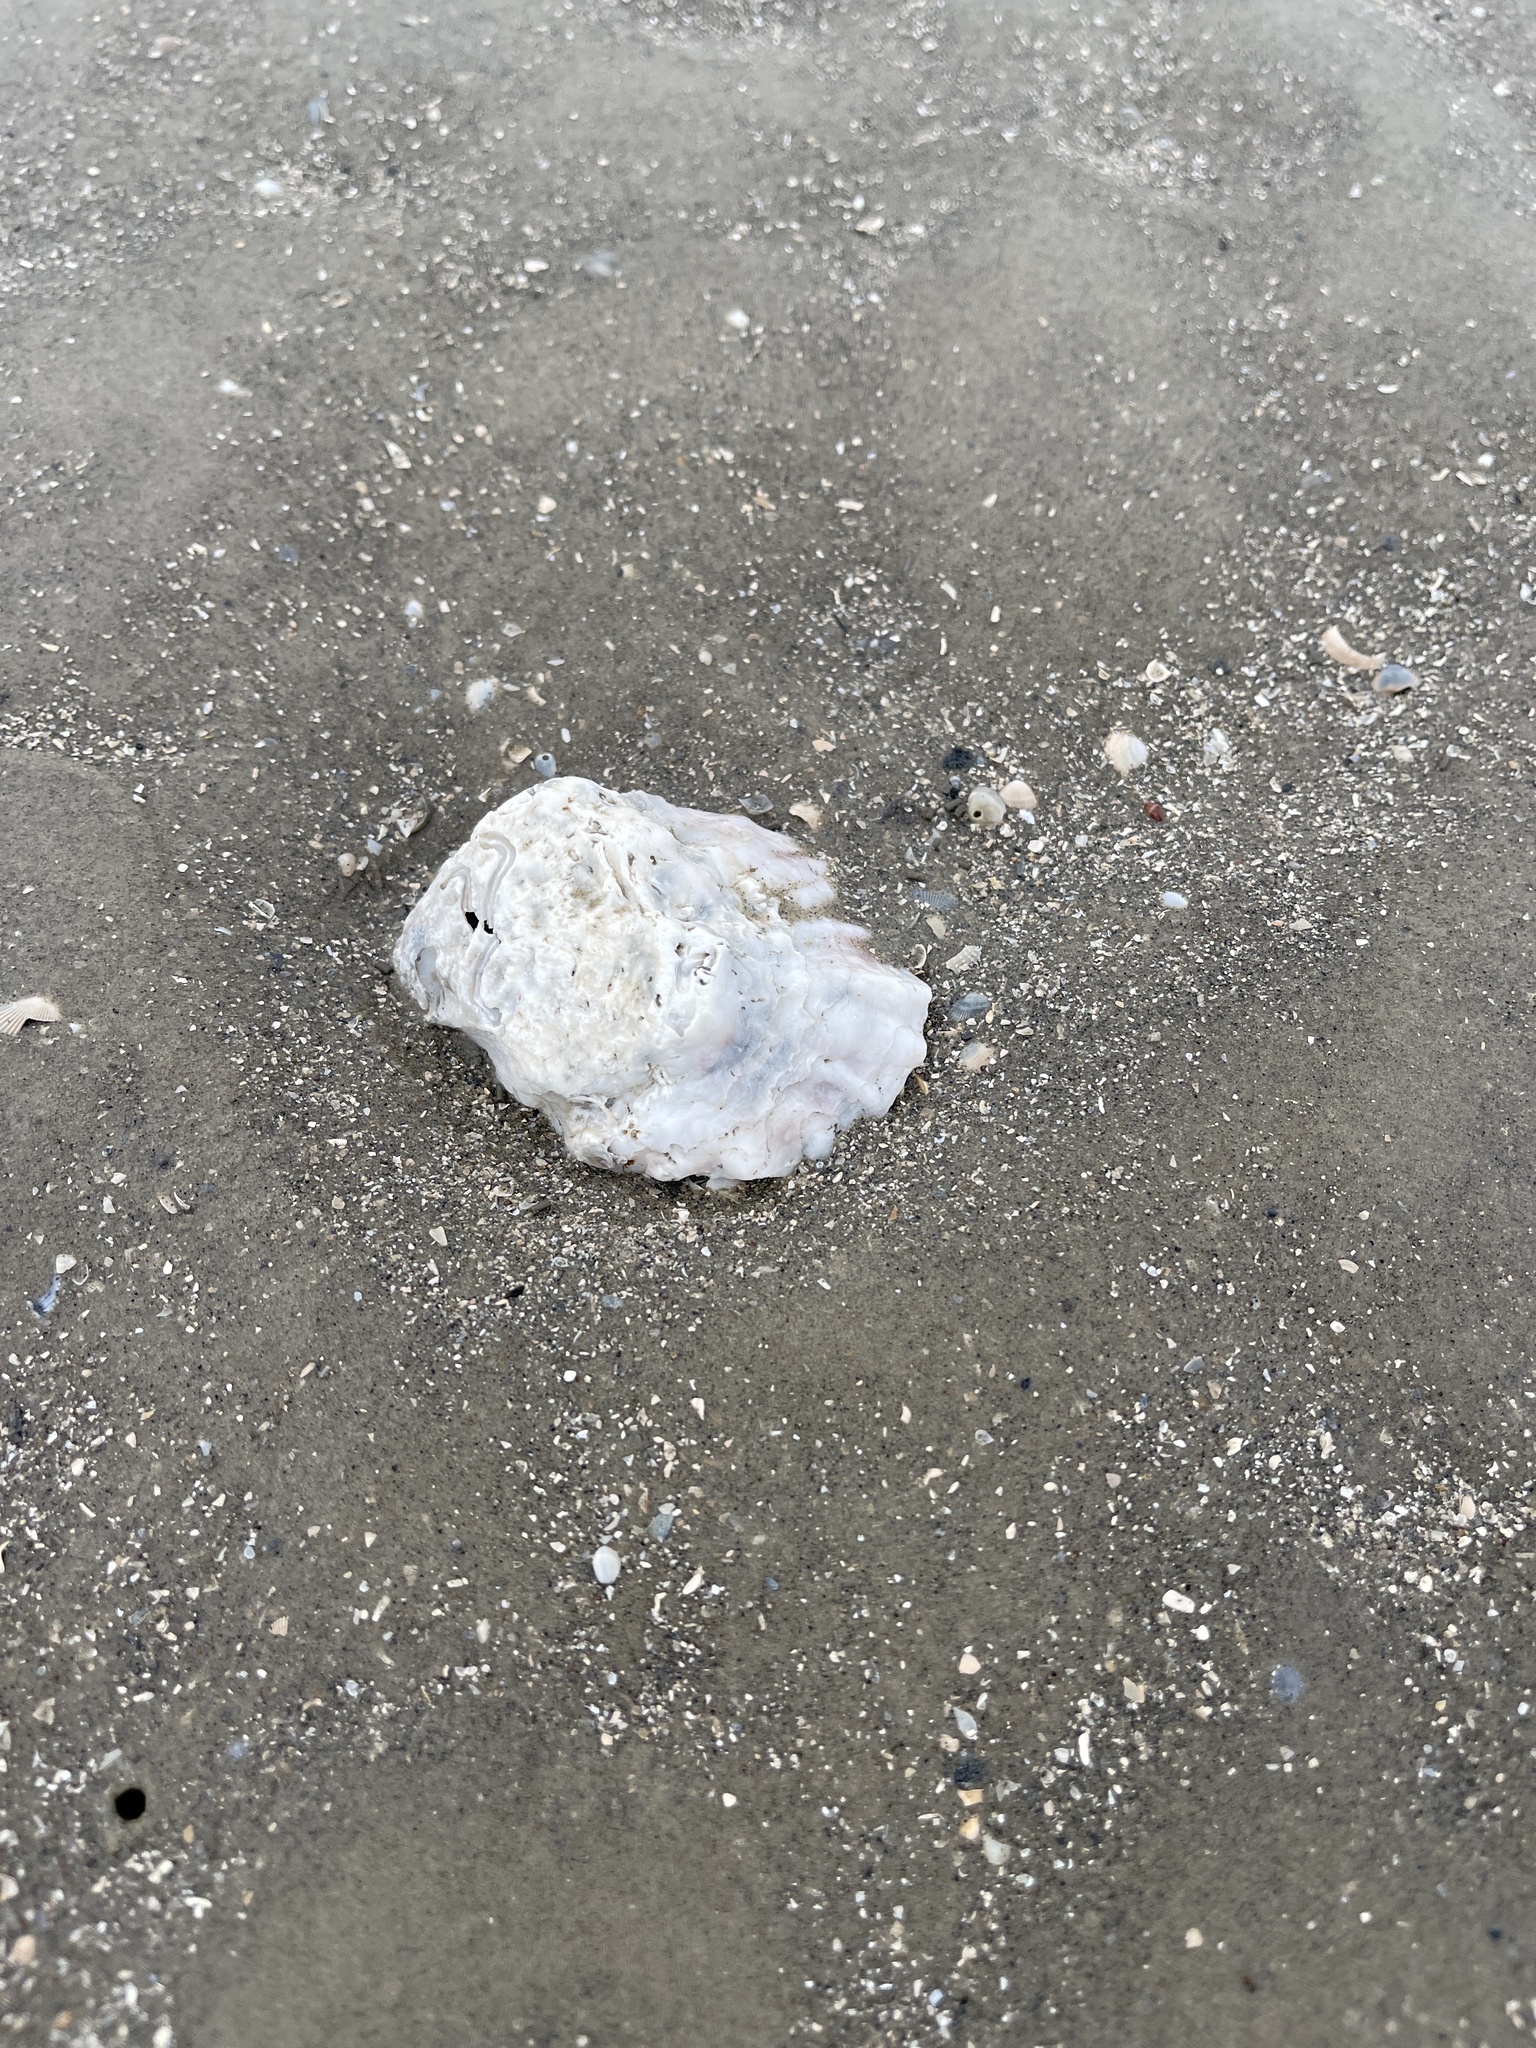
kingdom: Animalia
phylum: Mollusca
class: Bivalvia
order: Ostreida
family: Ostreidae
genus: Crassostrea
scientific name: Crassostrea virginica
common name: American oyster
